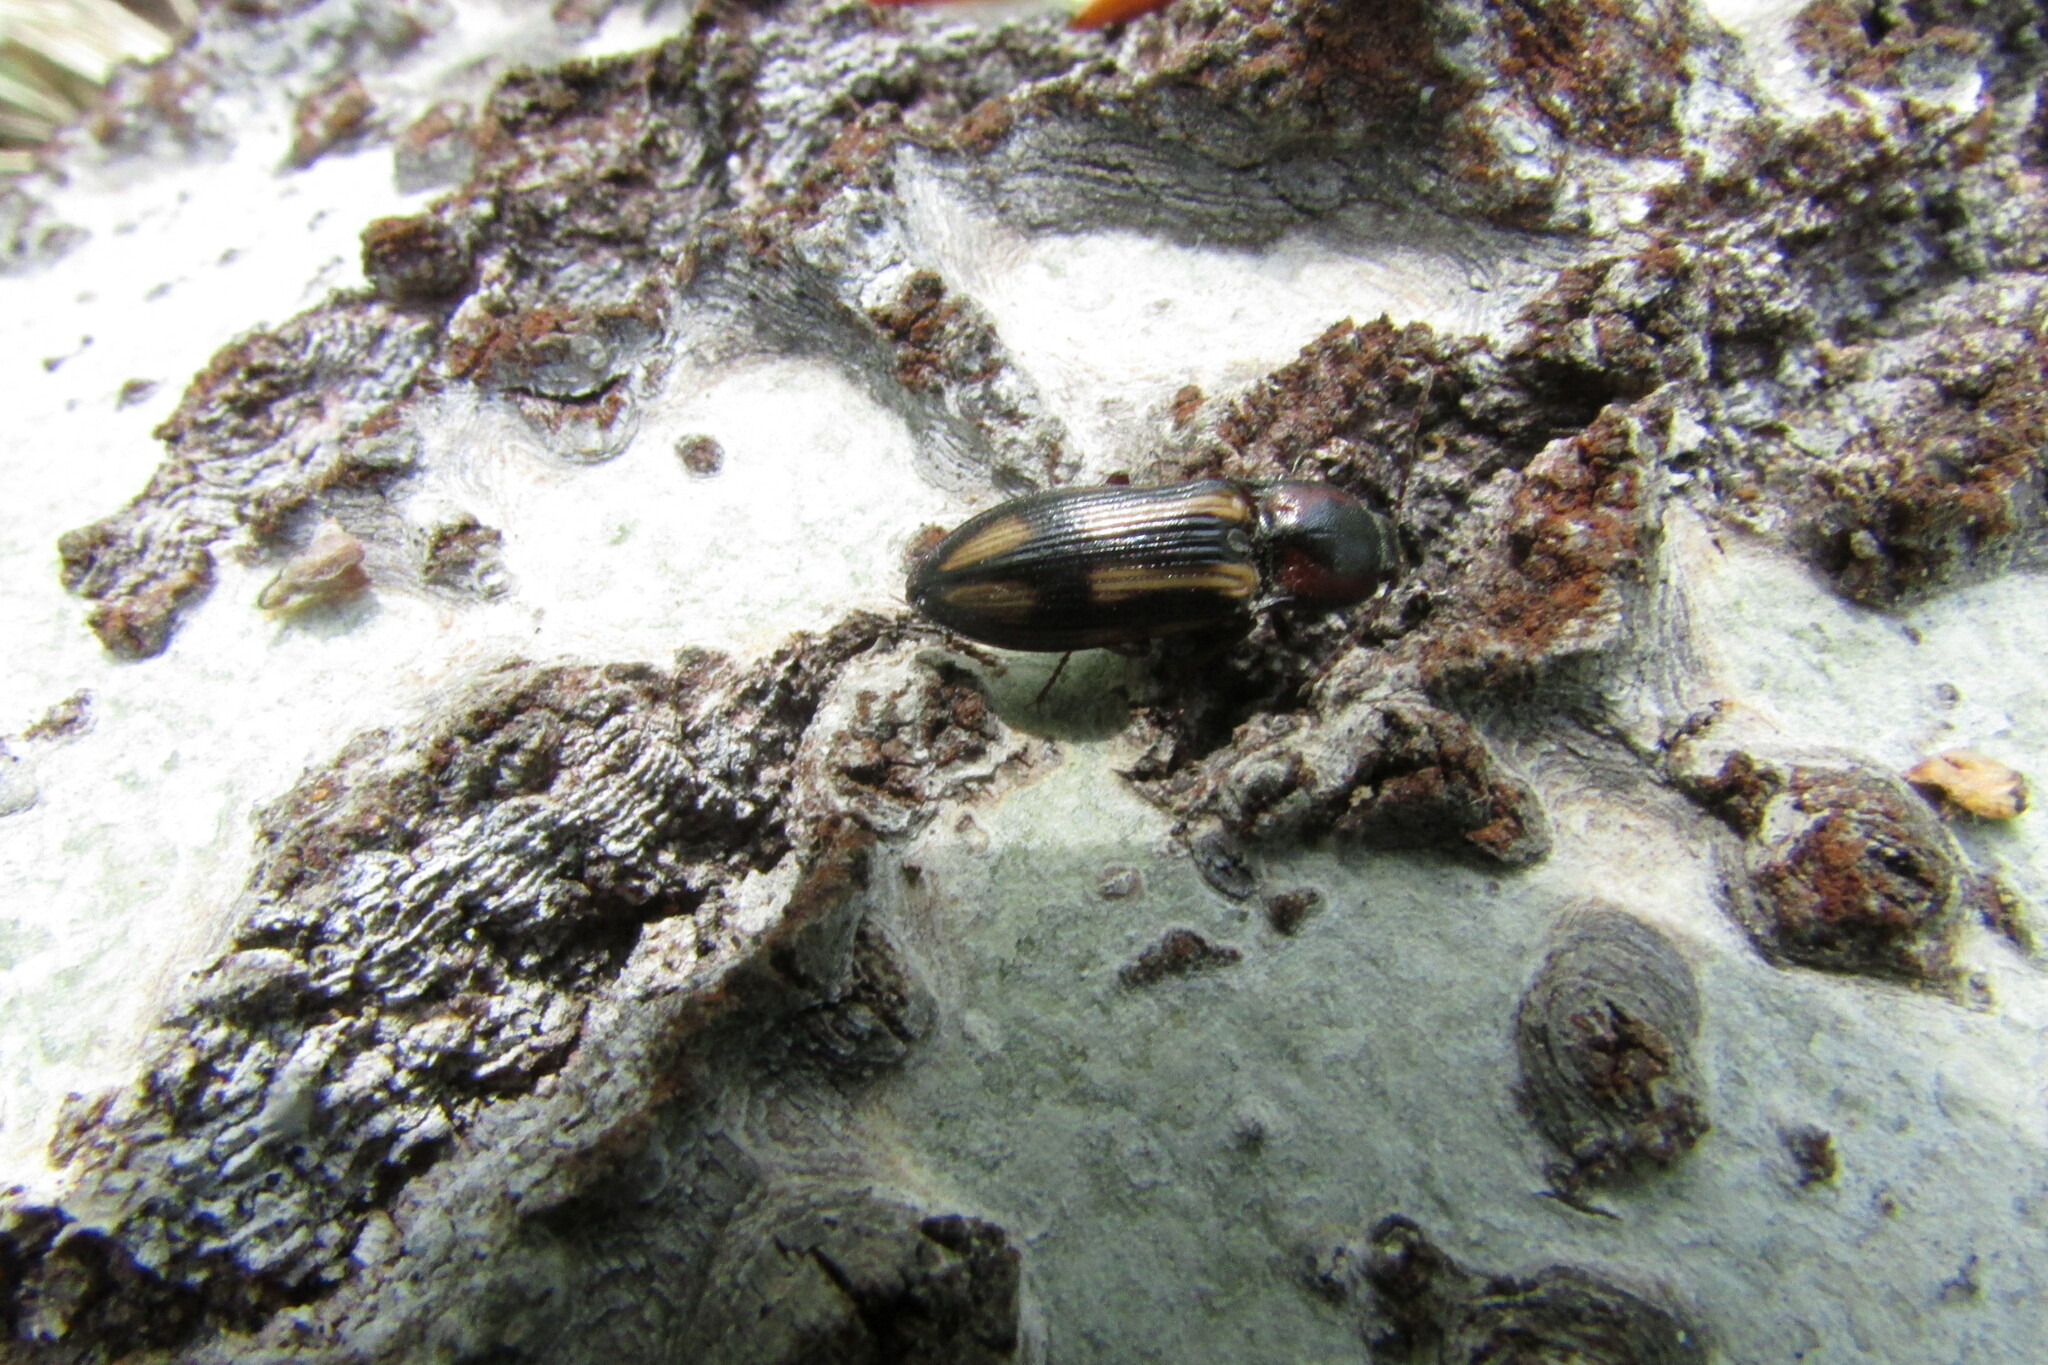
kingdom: Animalia
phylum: Arthropoda
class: Insecta
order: Coleoptera
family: Elateridae
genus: Selatosomus
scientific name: Selatosomus cruciatus
